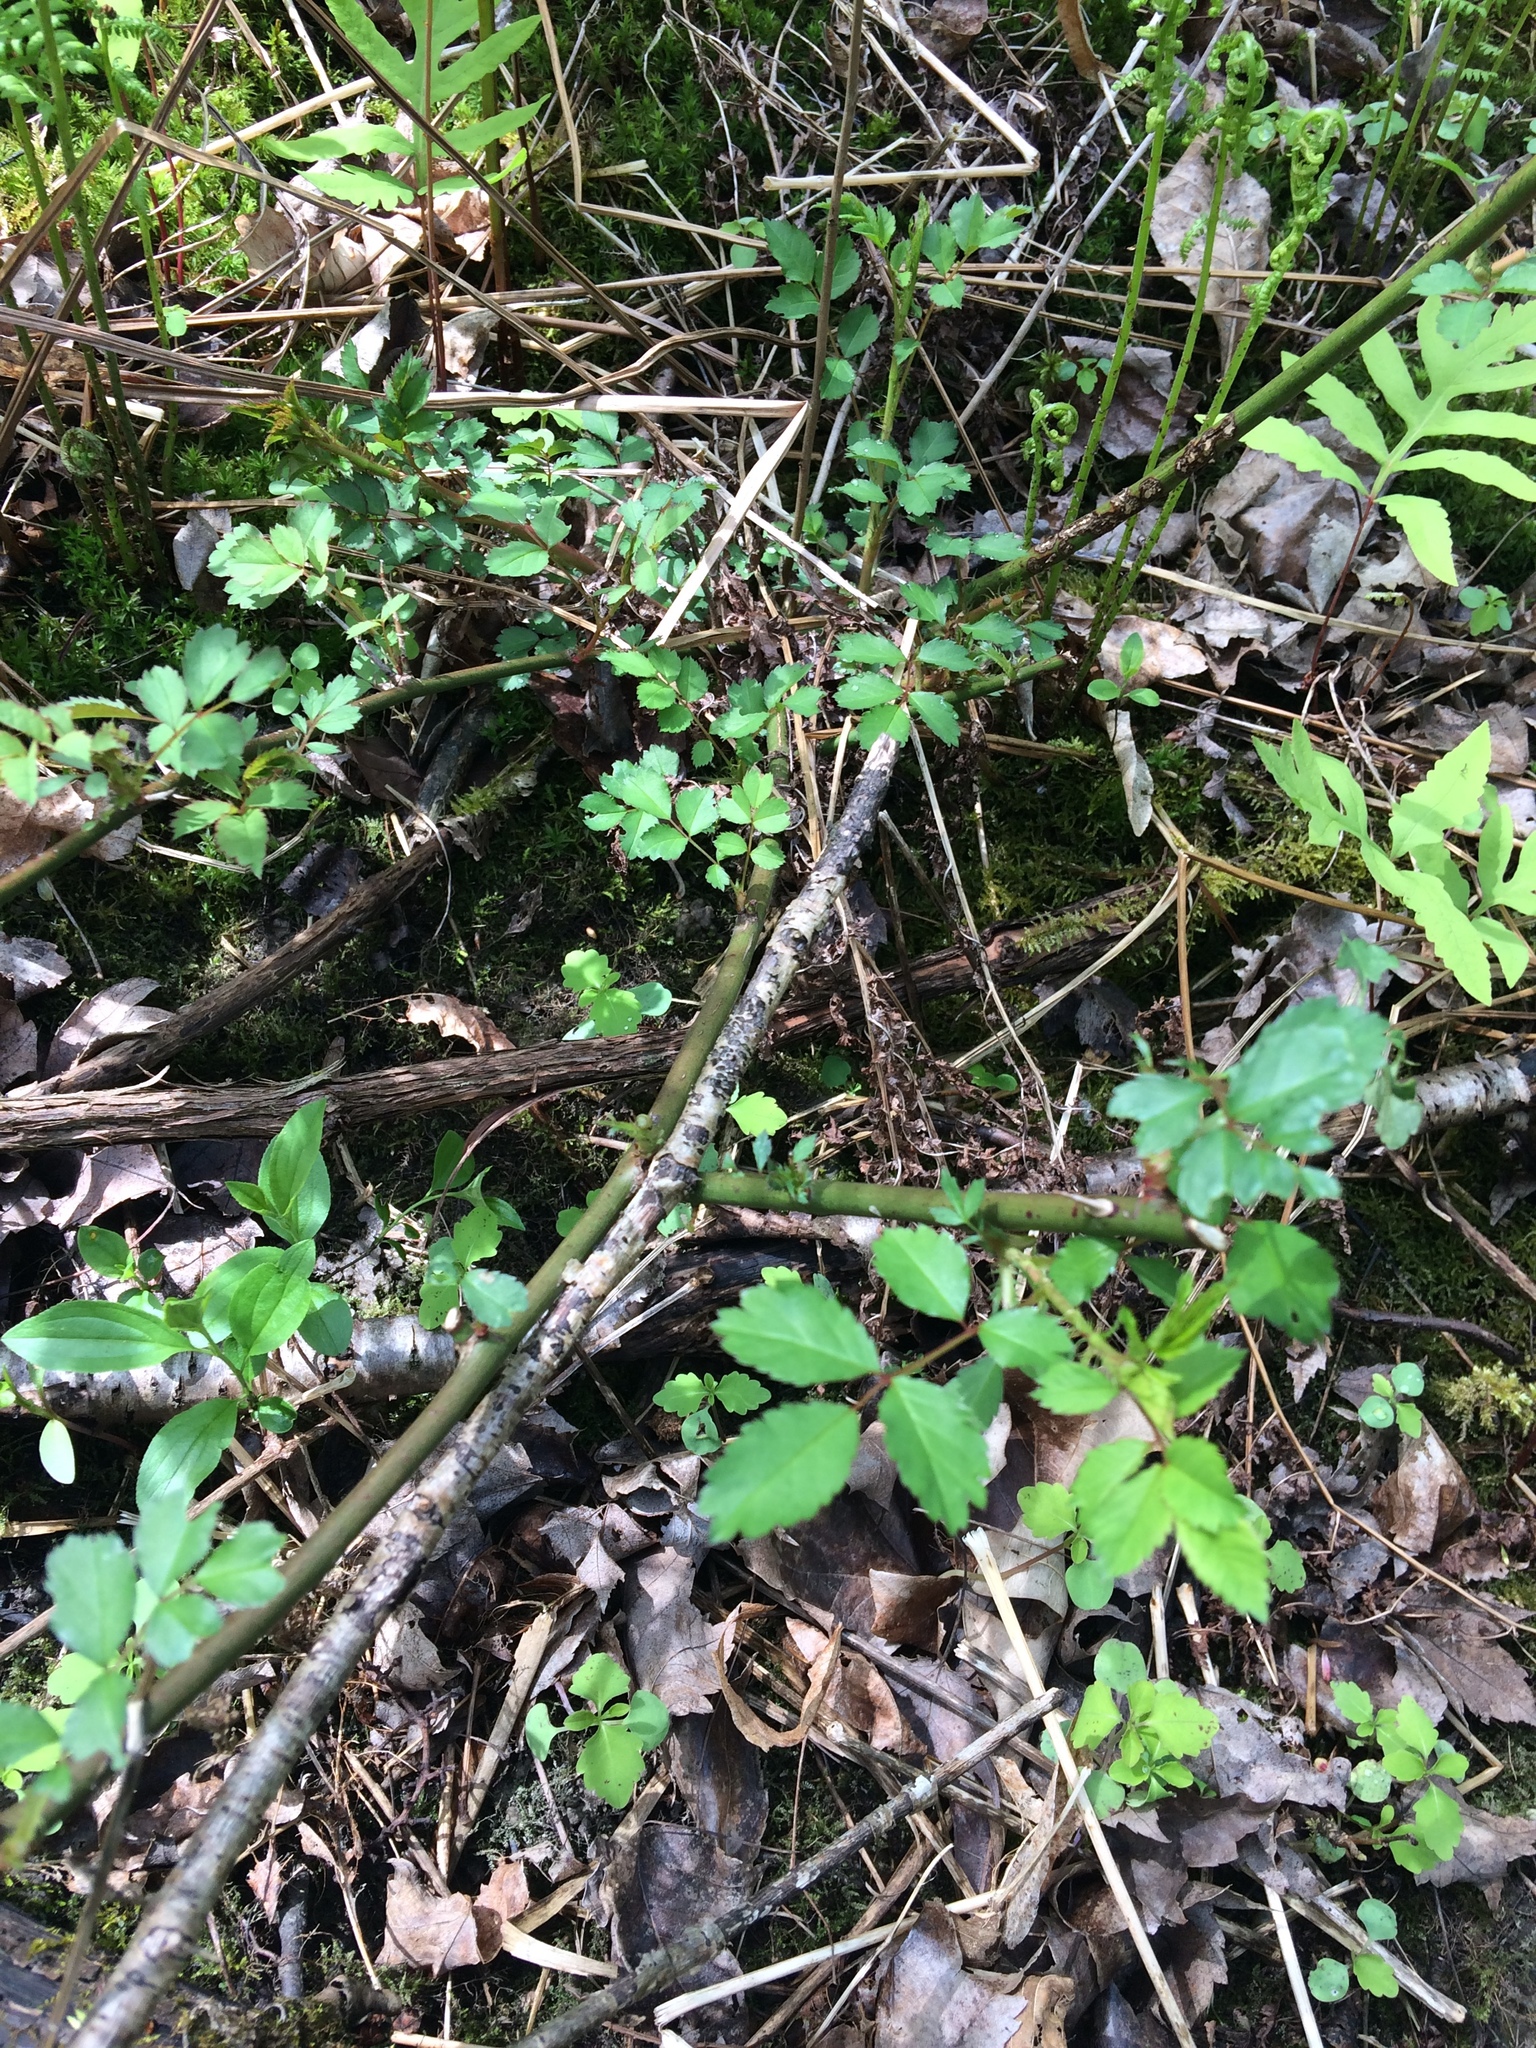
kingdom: Plantae
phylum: Tracheophyta
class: Magnoliopsida
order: Rosales
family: Rosaceae
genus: Rosa
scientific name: Rosa multiflora
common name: Multiflora rose
